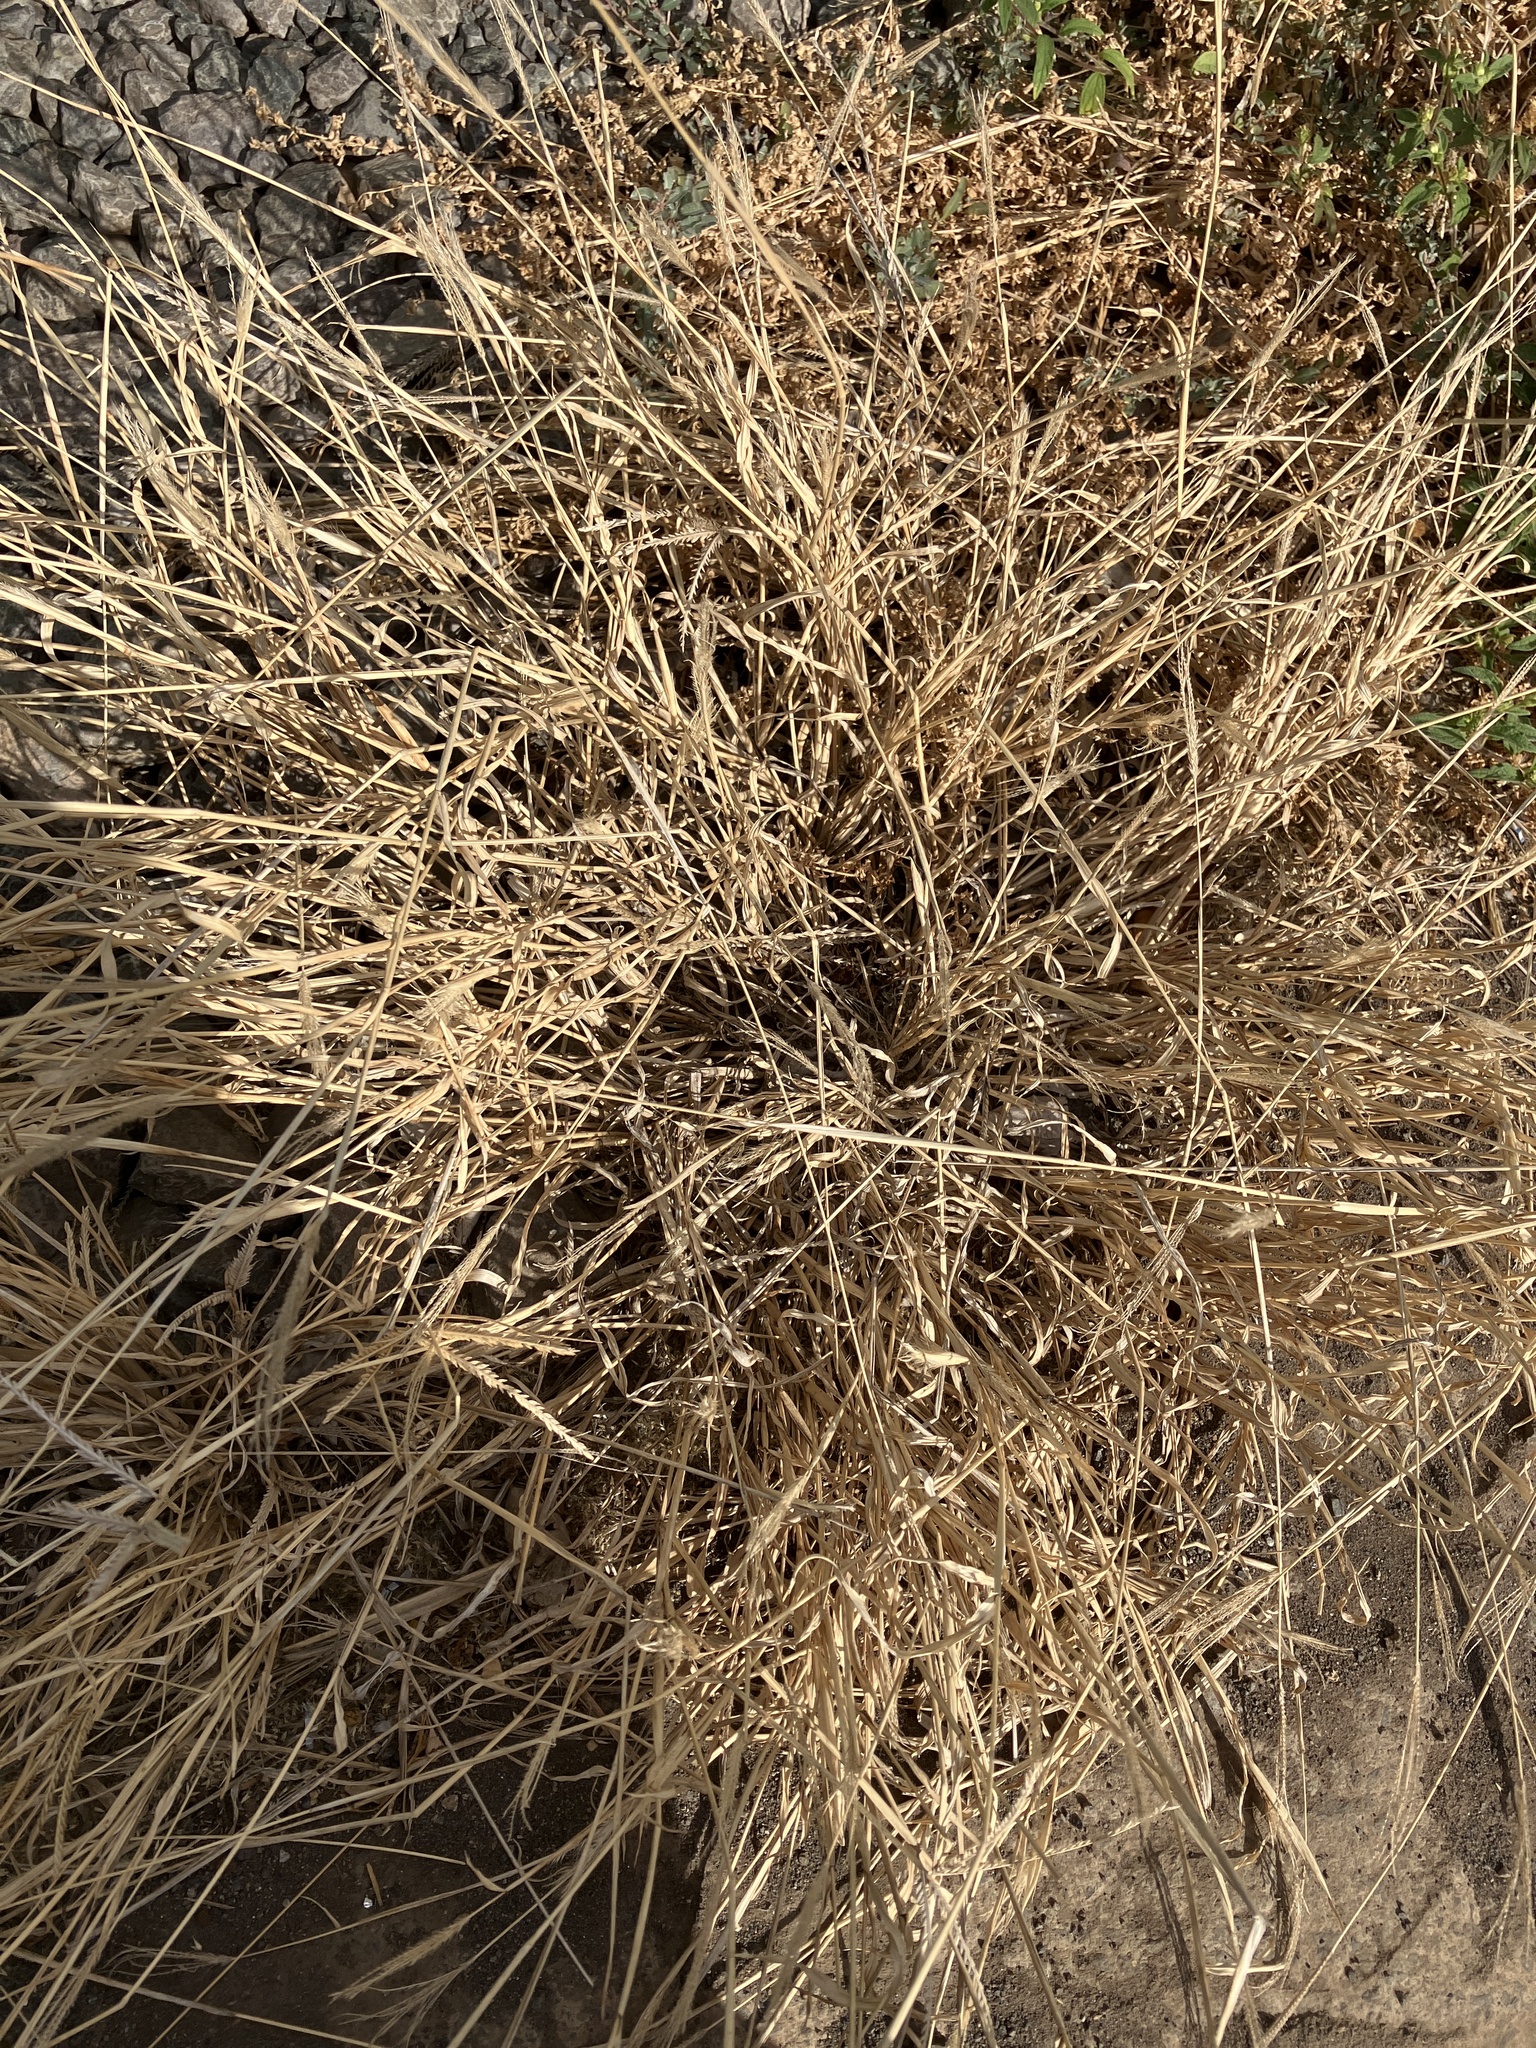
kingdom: Plantae
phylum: Tracheophyta
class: Liliopsida
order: Poales
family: Poaceae
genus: Eleusine
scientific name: Eleusine indica
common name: Yard-grass
